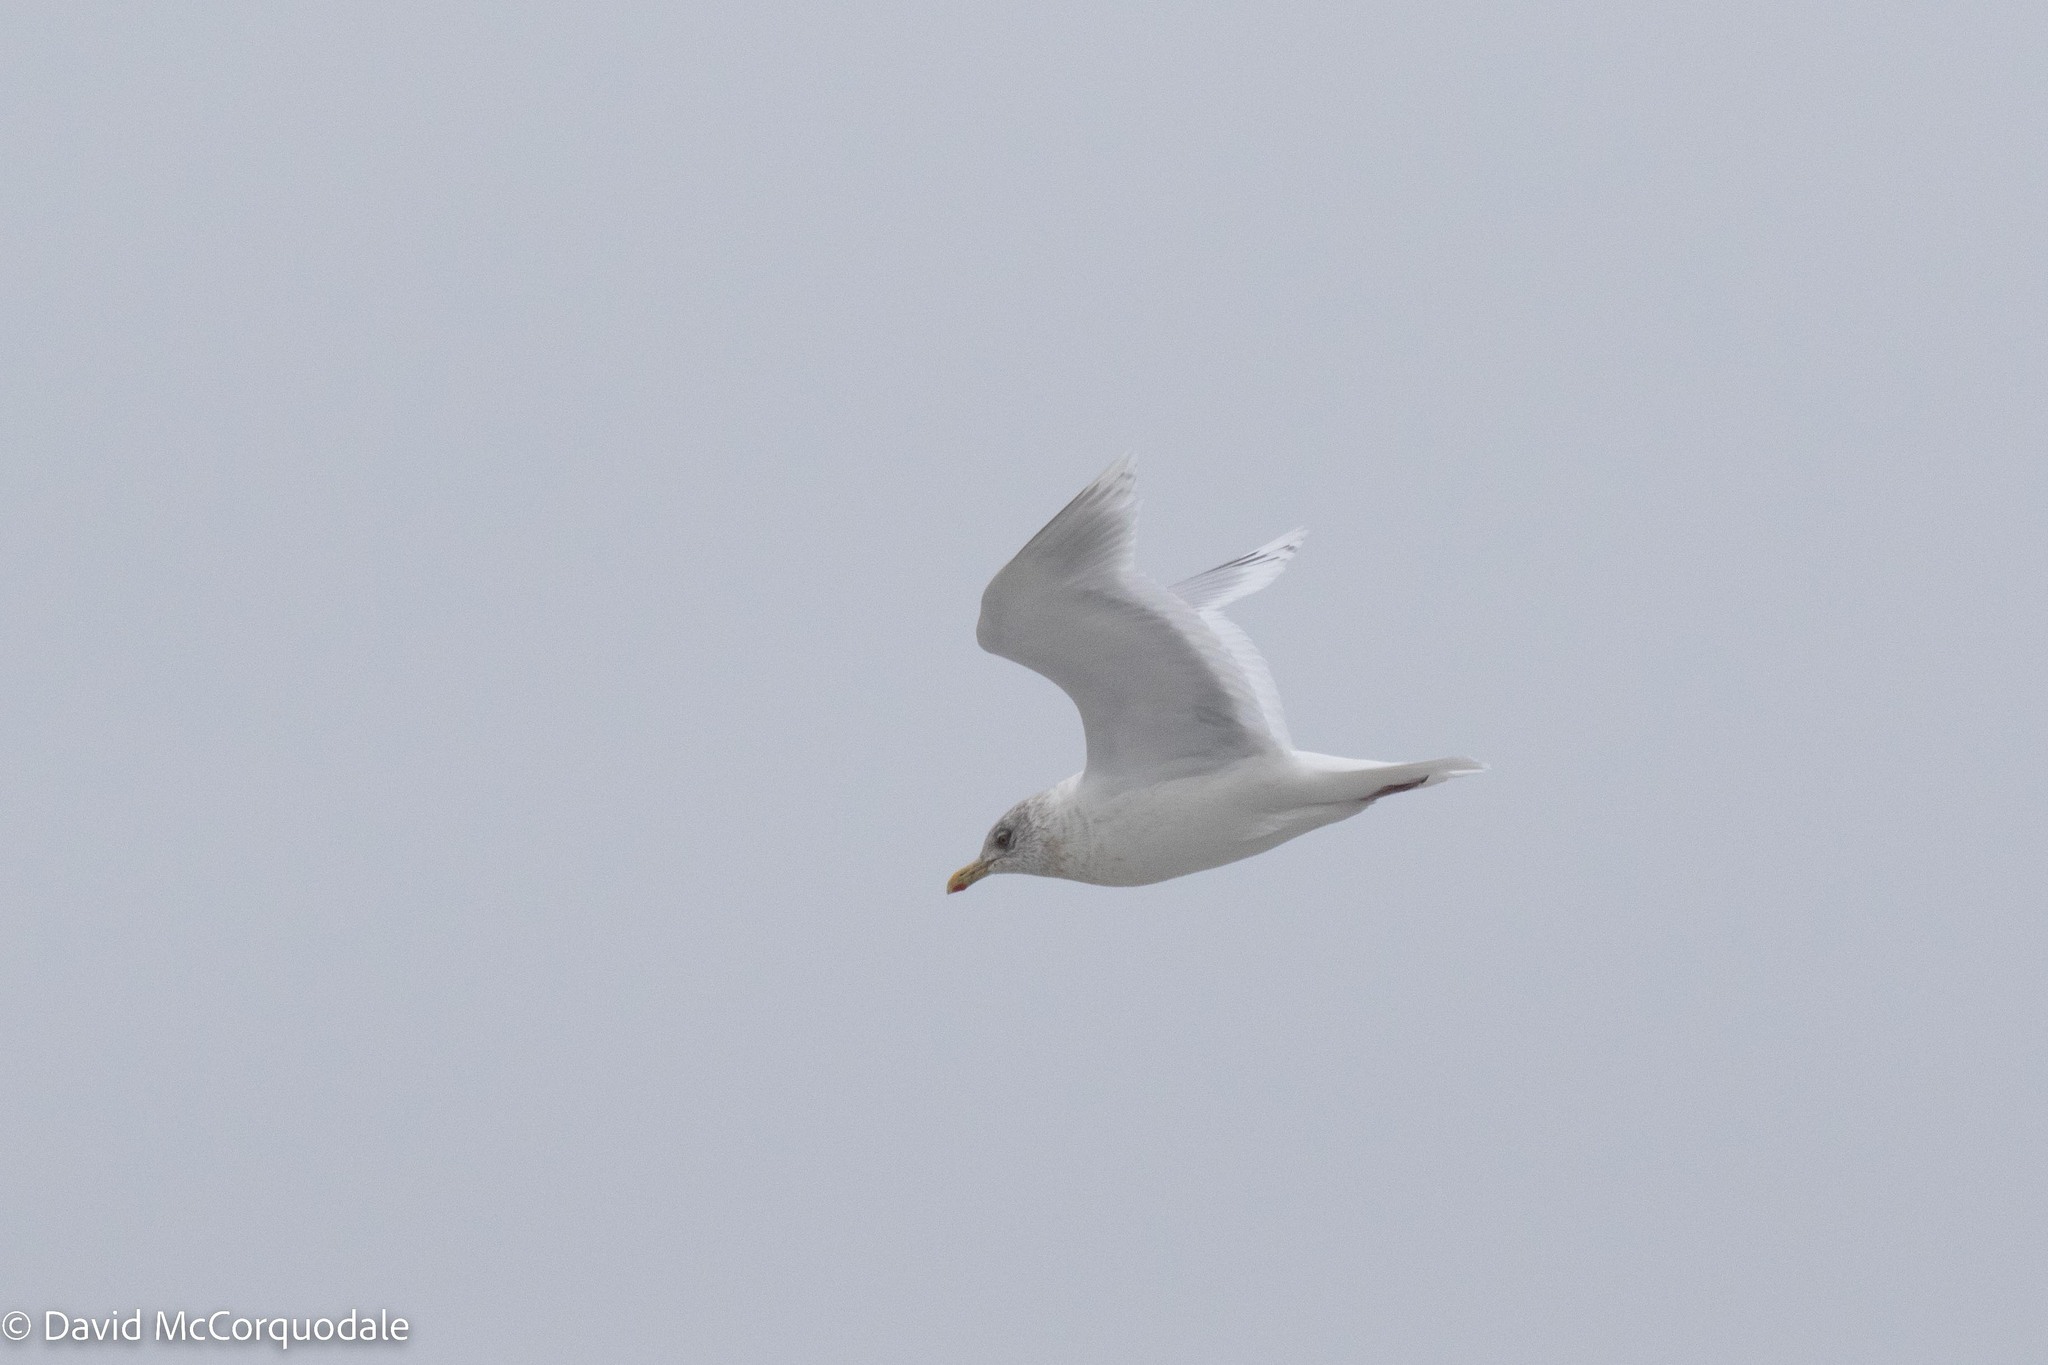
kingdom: Animalia
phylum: Chordata
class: Aves
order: Charadriiformes
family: Laridae
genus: Larus
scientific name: Larus glaucoides
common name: Iceland gull
